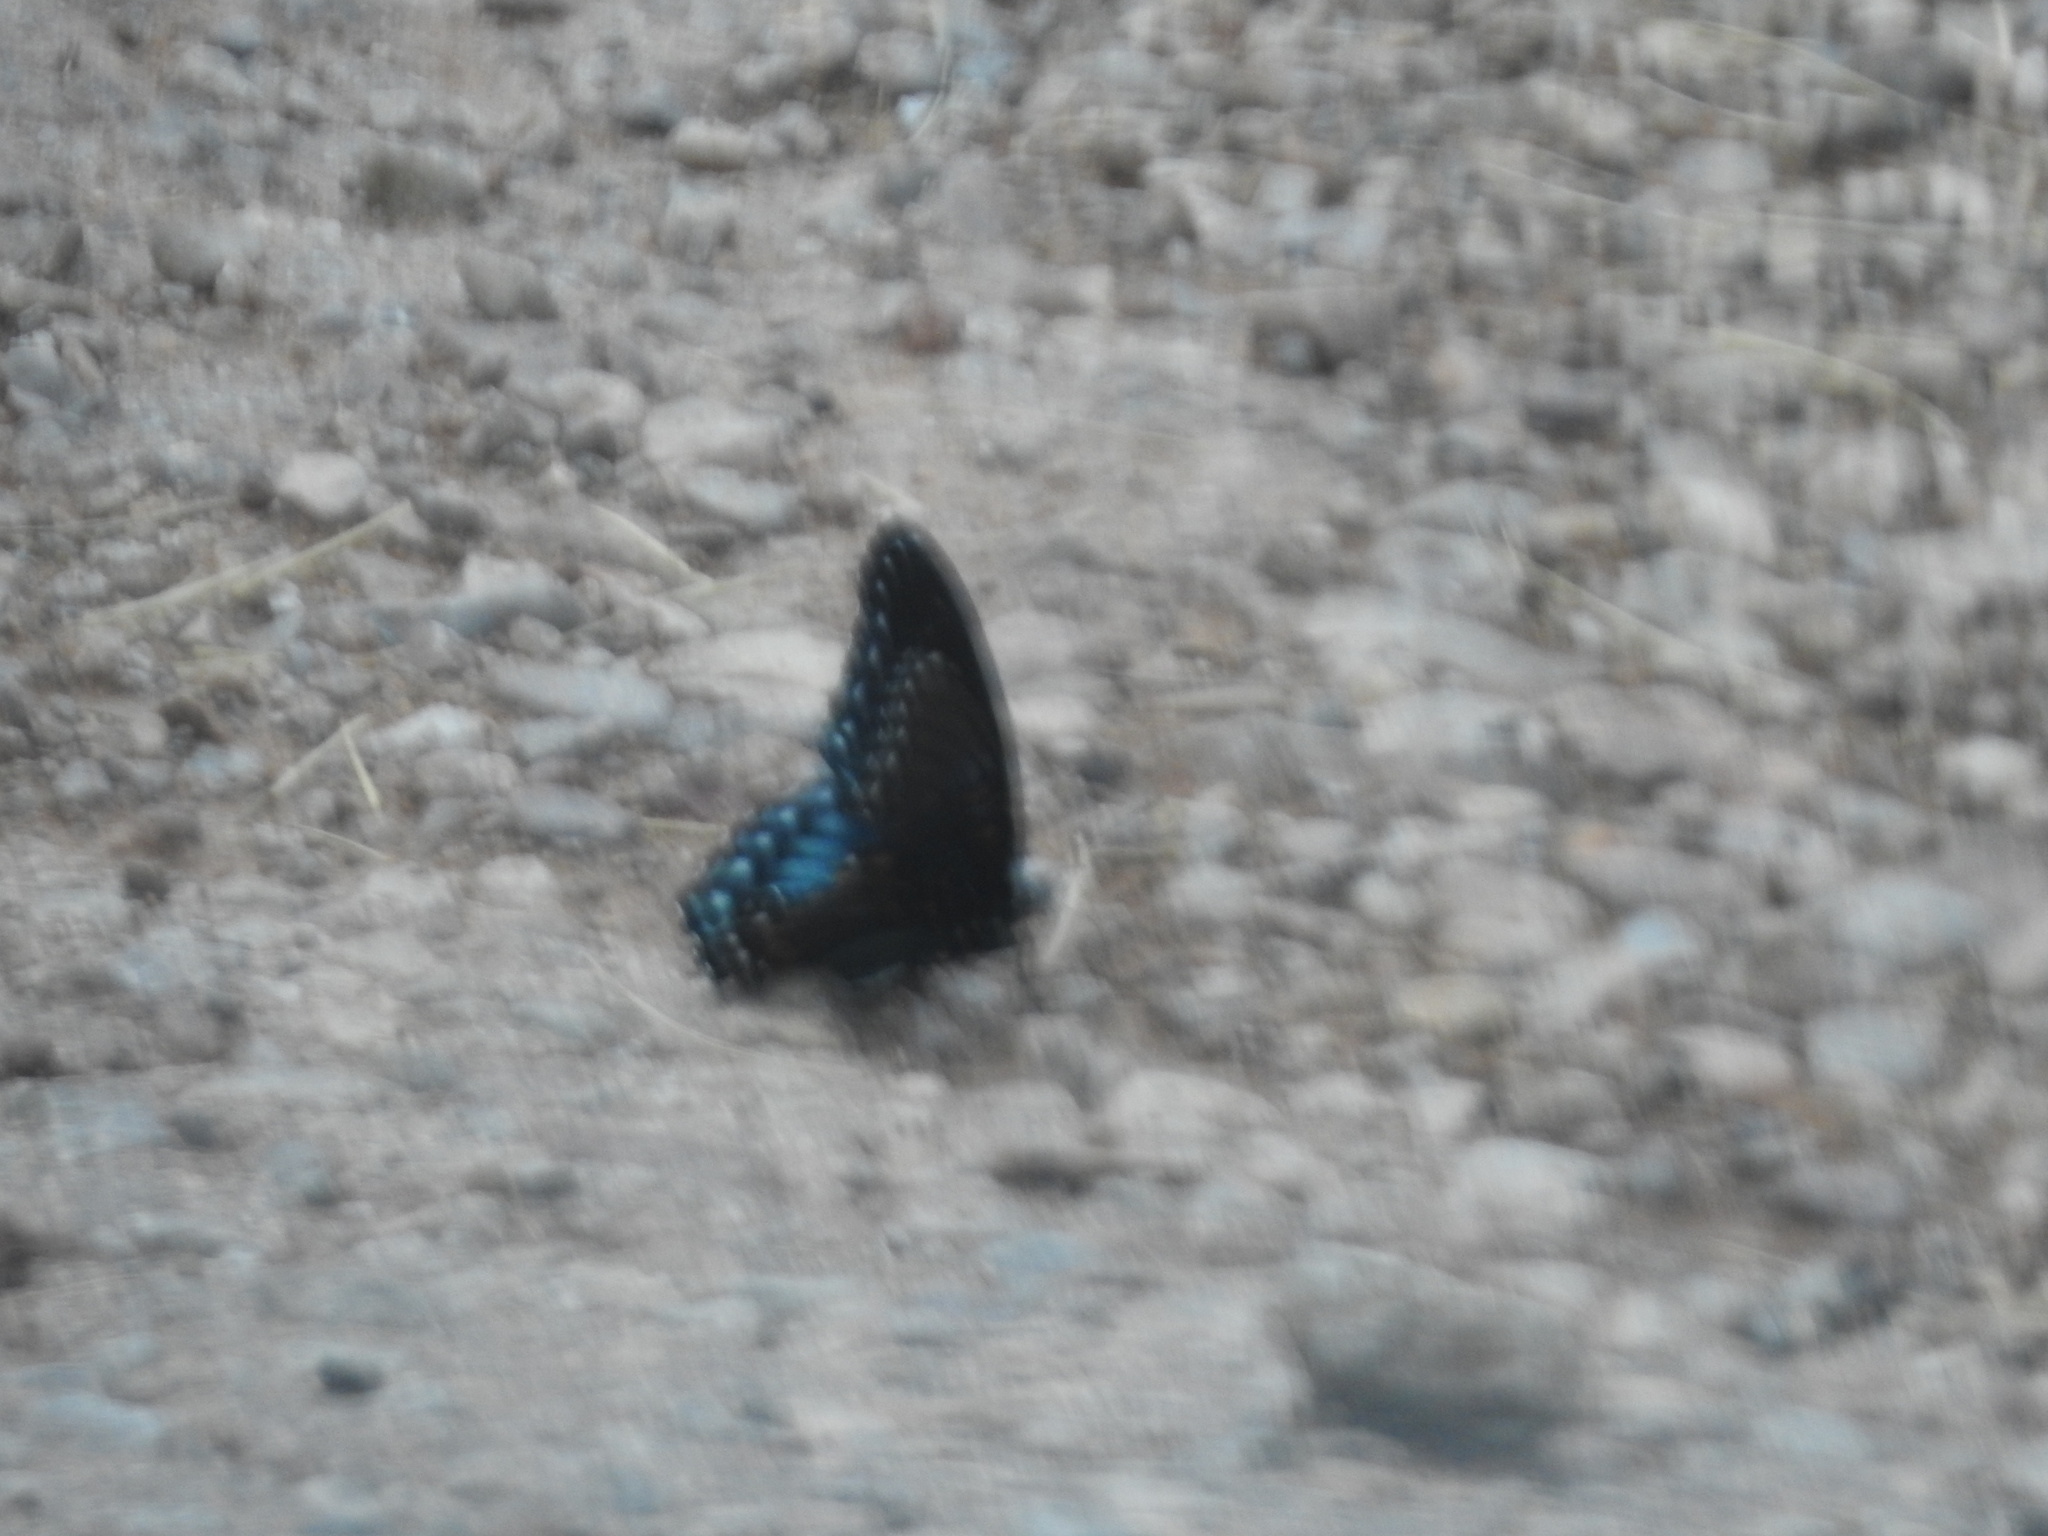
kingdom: Animalia
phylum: Arthropoda
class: Insecta
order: Lepidoptera
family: Nymphalidae
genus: Limenitis
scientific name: Limenitis arthemis
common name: Red-spotted admiral
